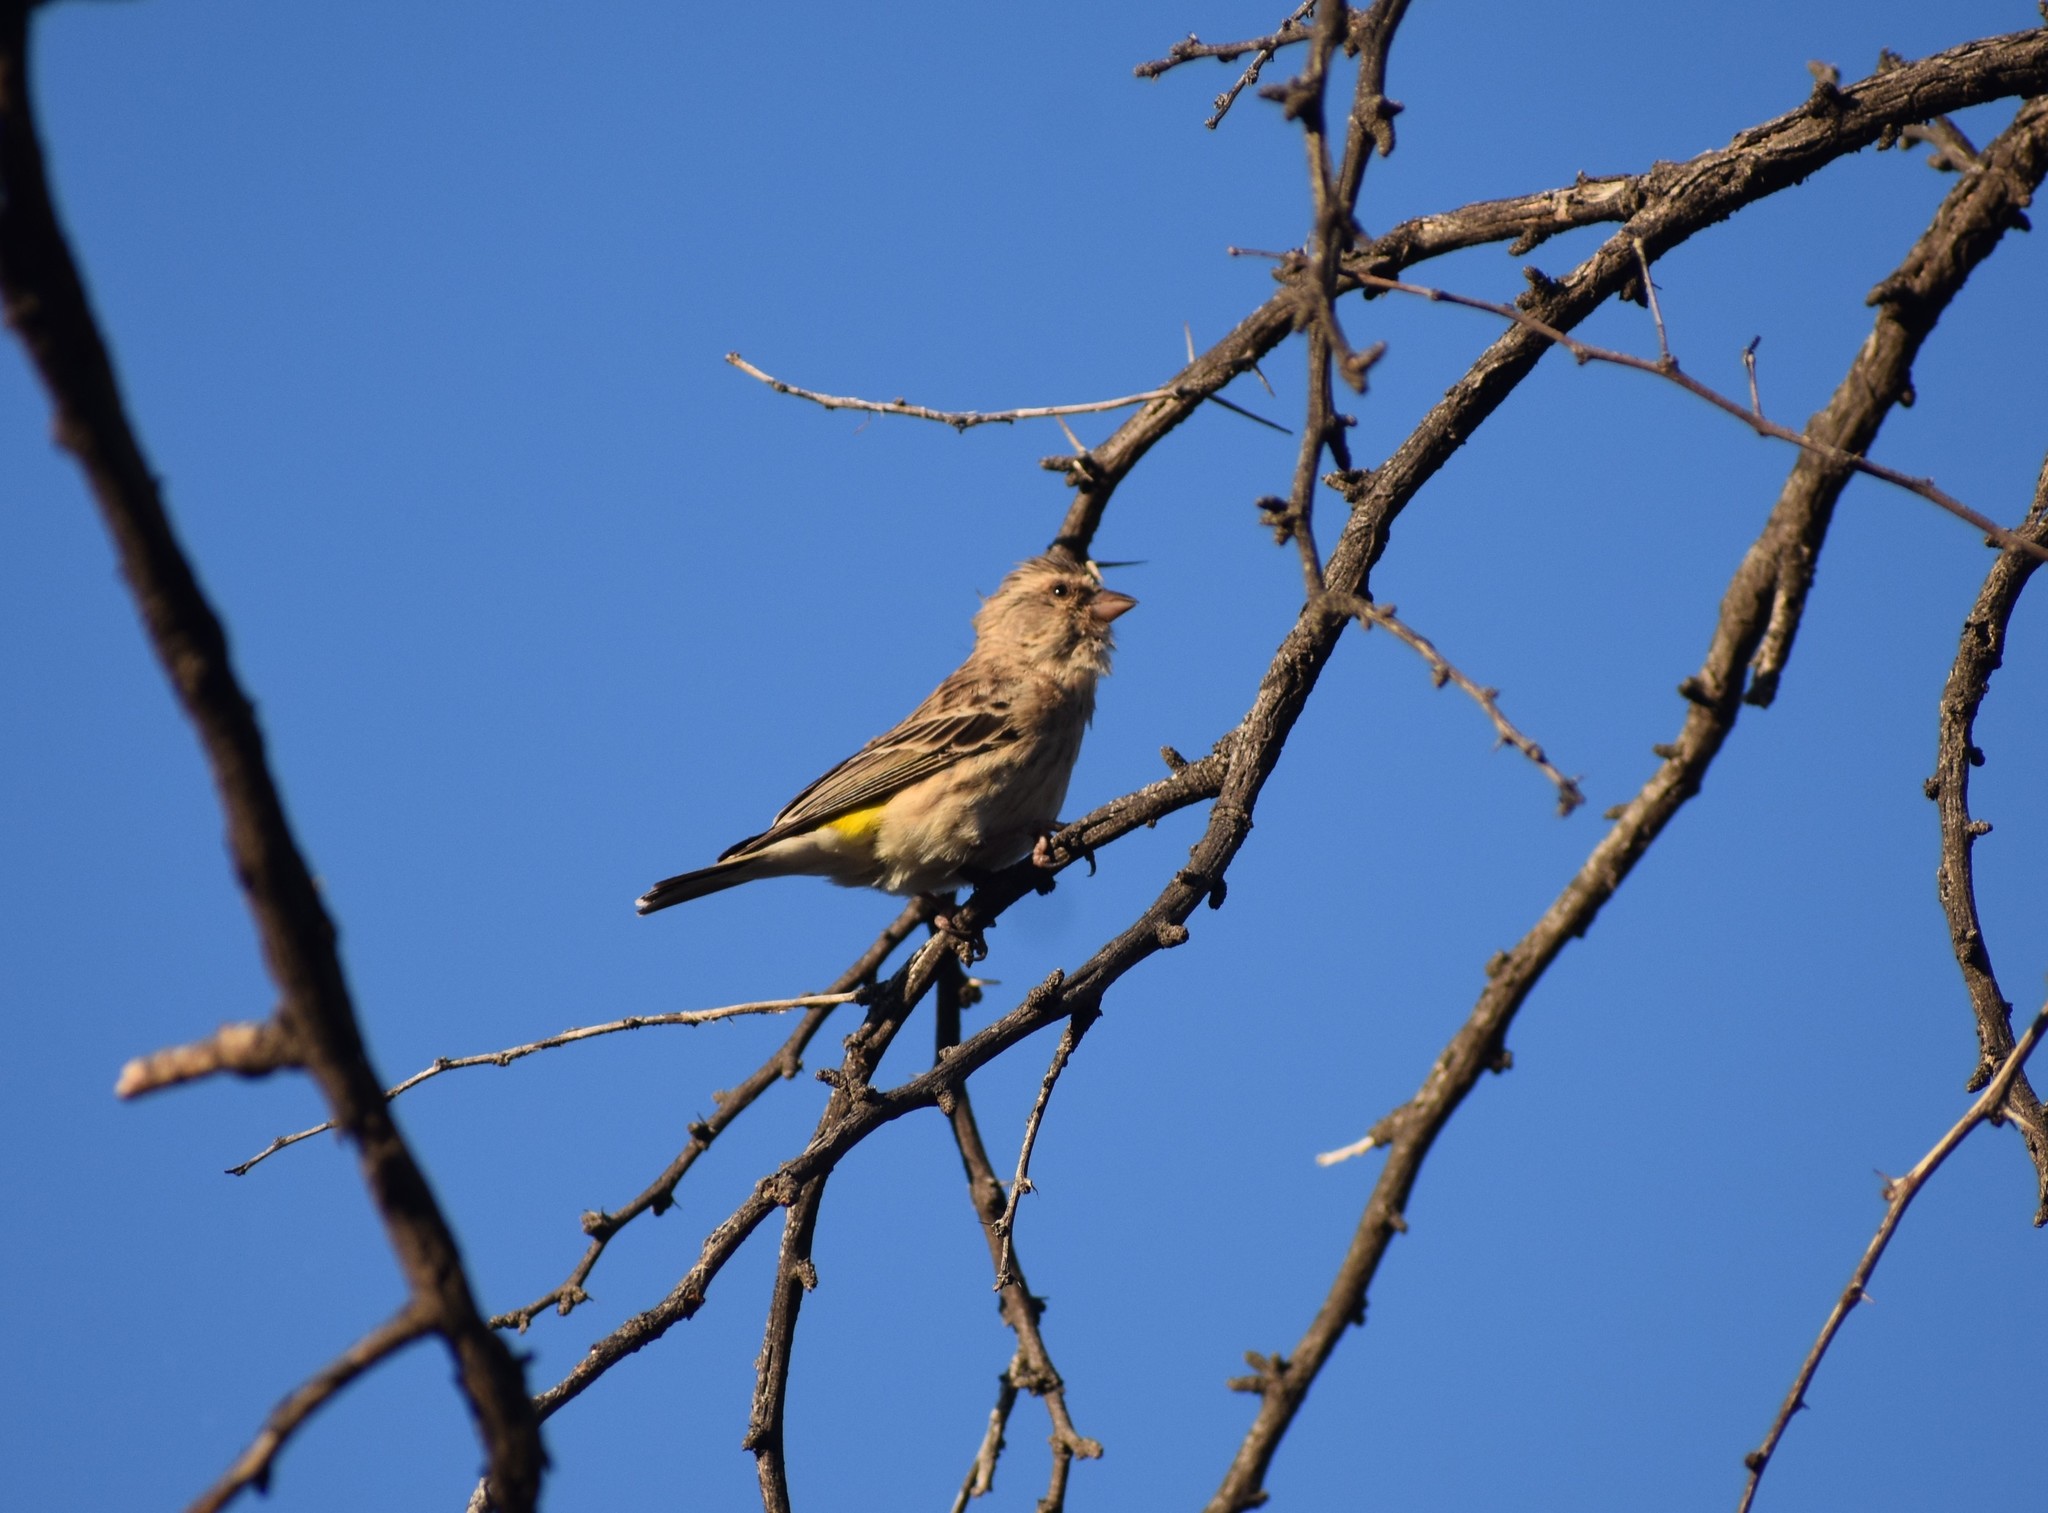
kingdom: Animalia
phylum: Chordata
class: Aves
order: Passeriformes
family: Fringillidae
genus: Crithagra
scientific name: Crithagra atrogularis
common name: Black-throated canary
